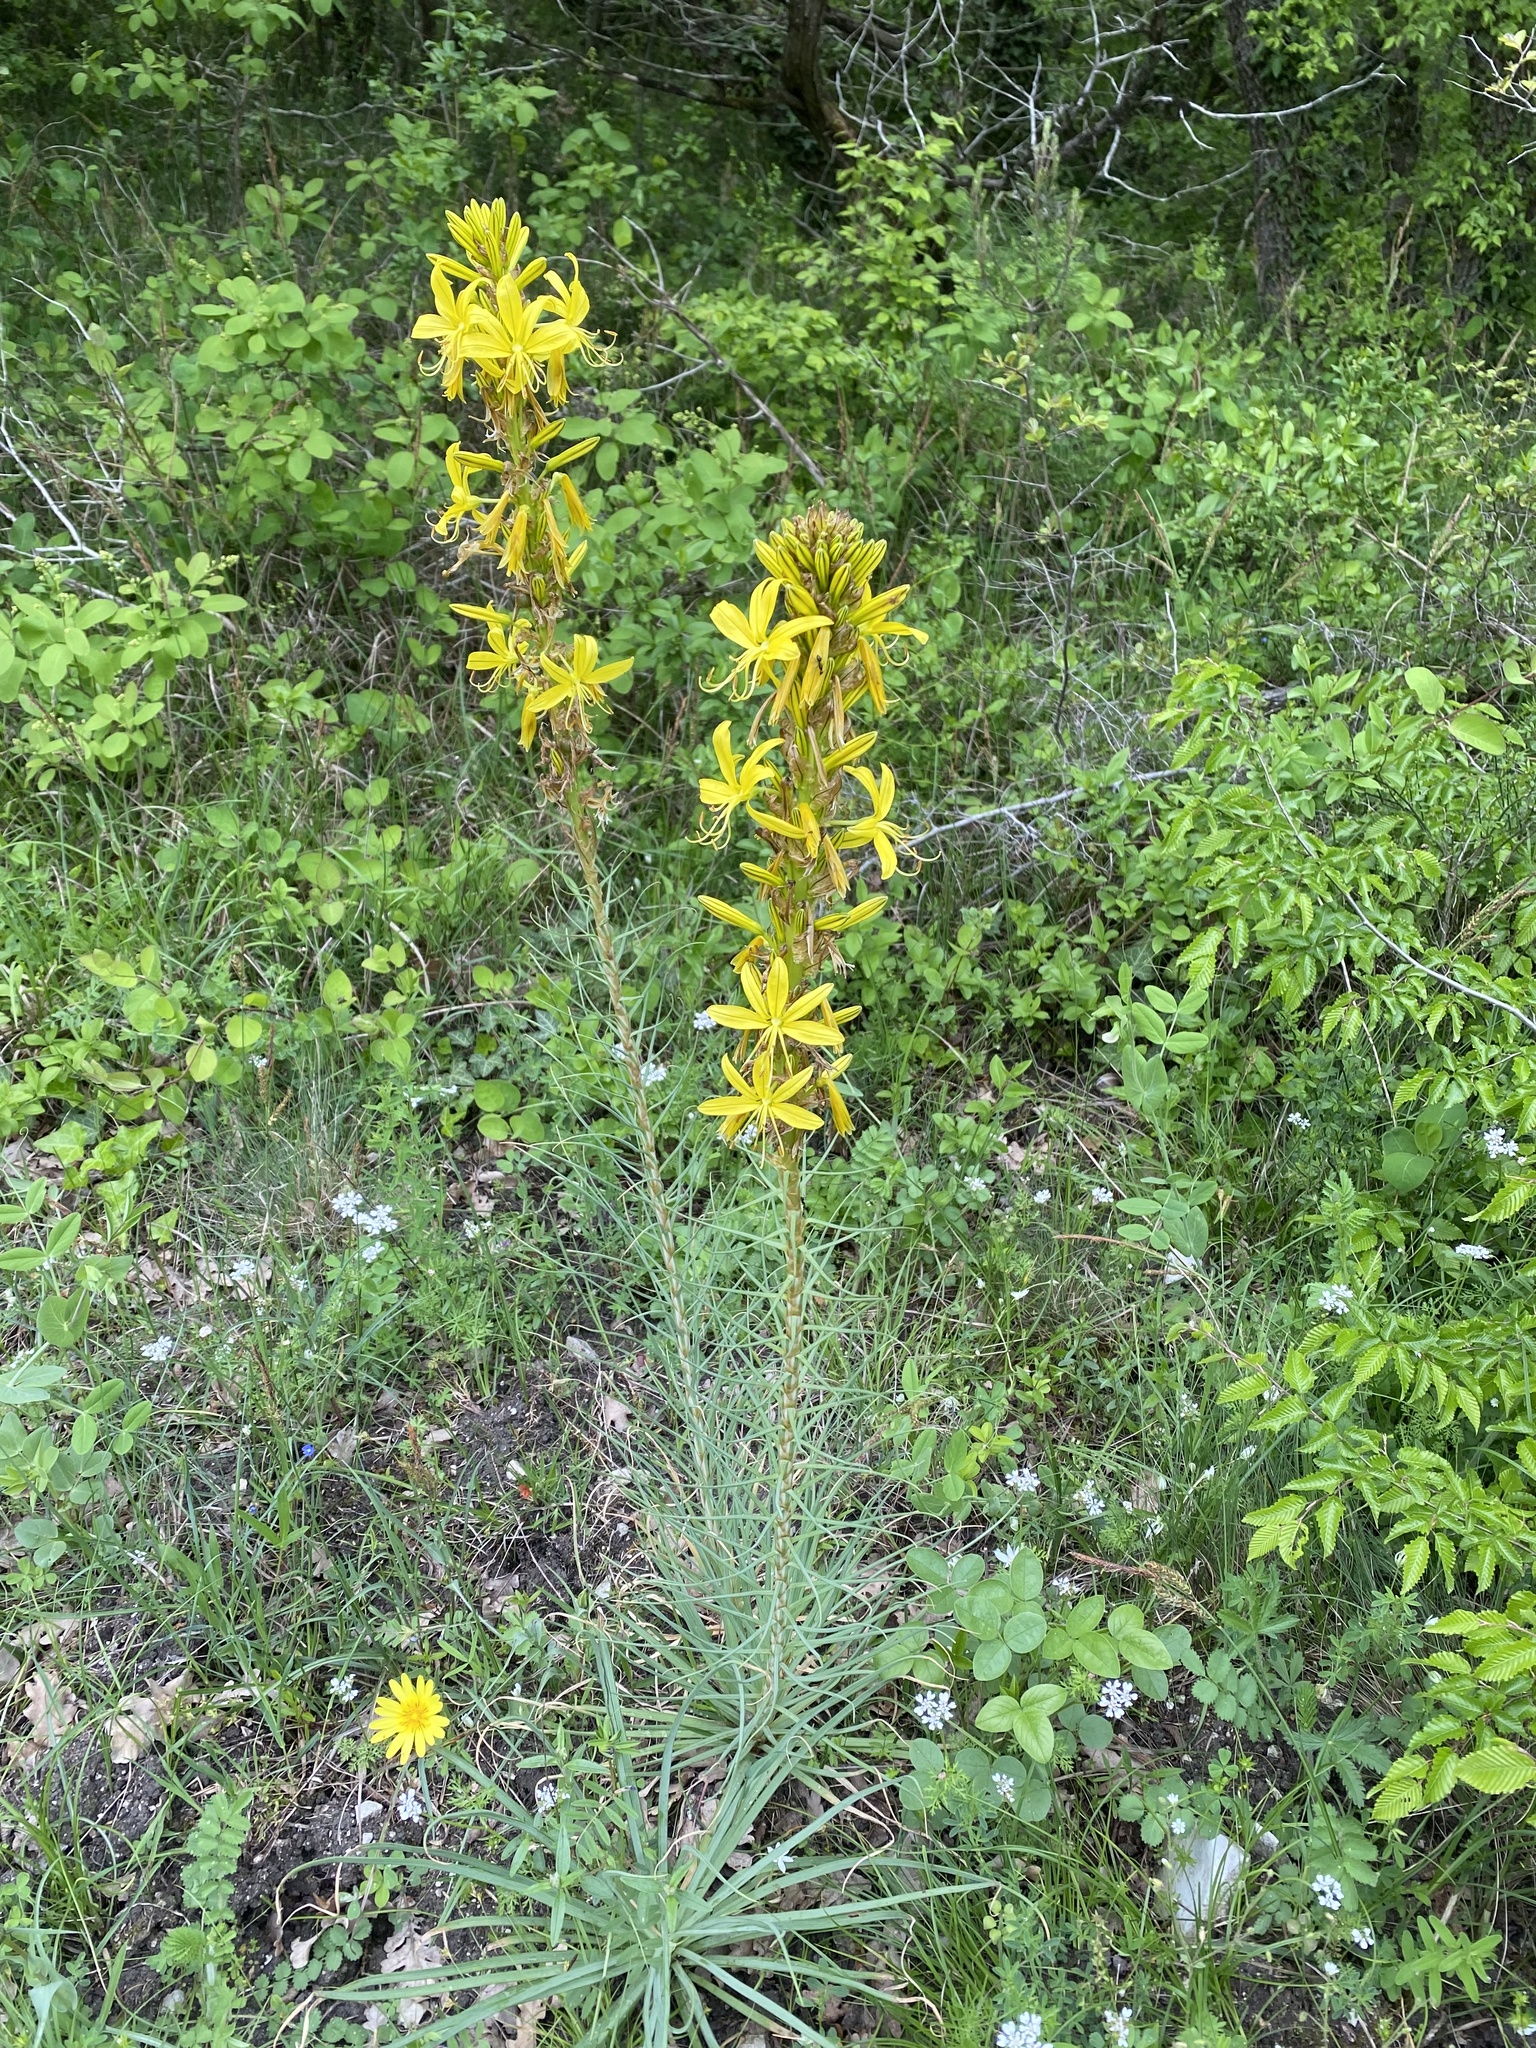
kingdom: Plantae
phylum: Tracheophyta
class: Liliopsida
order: Asparagales
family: Asphodelaceae
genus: Asphodeline
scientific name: Asphodeline lutea
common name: Yellow asphodel
